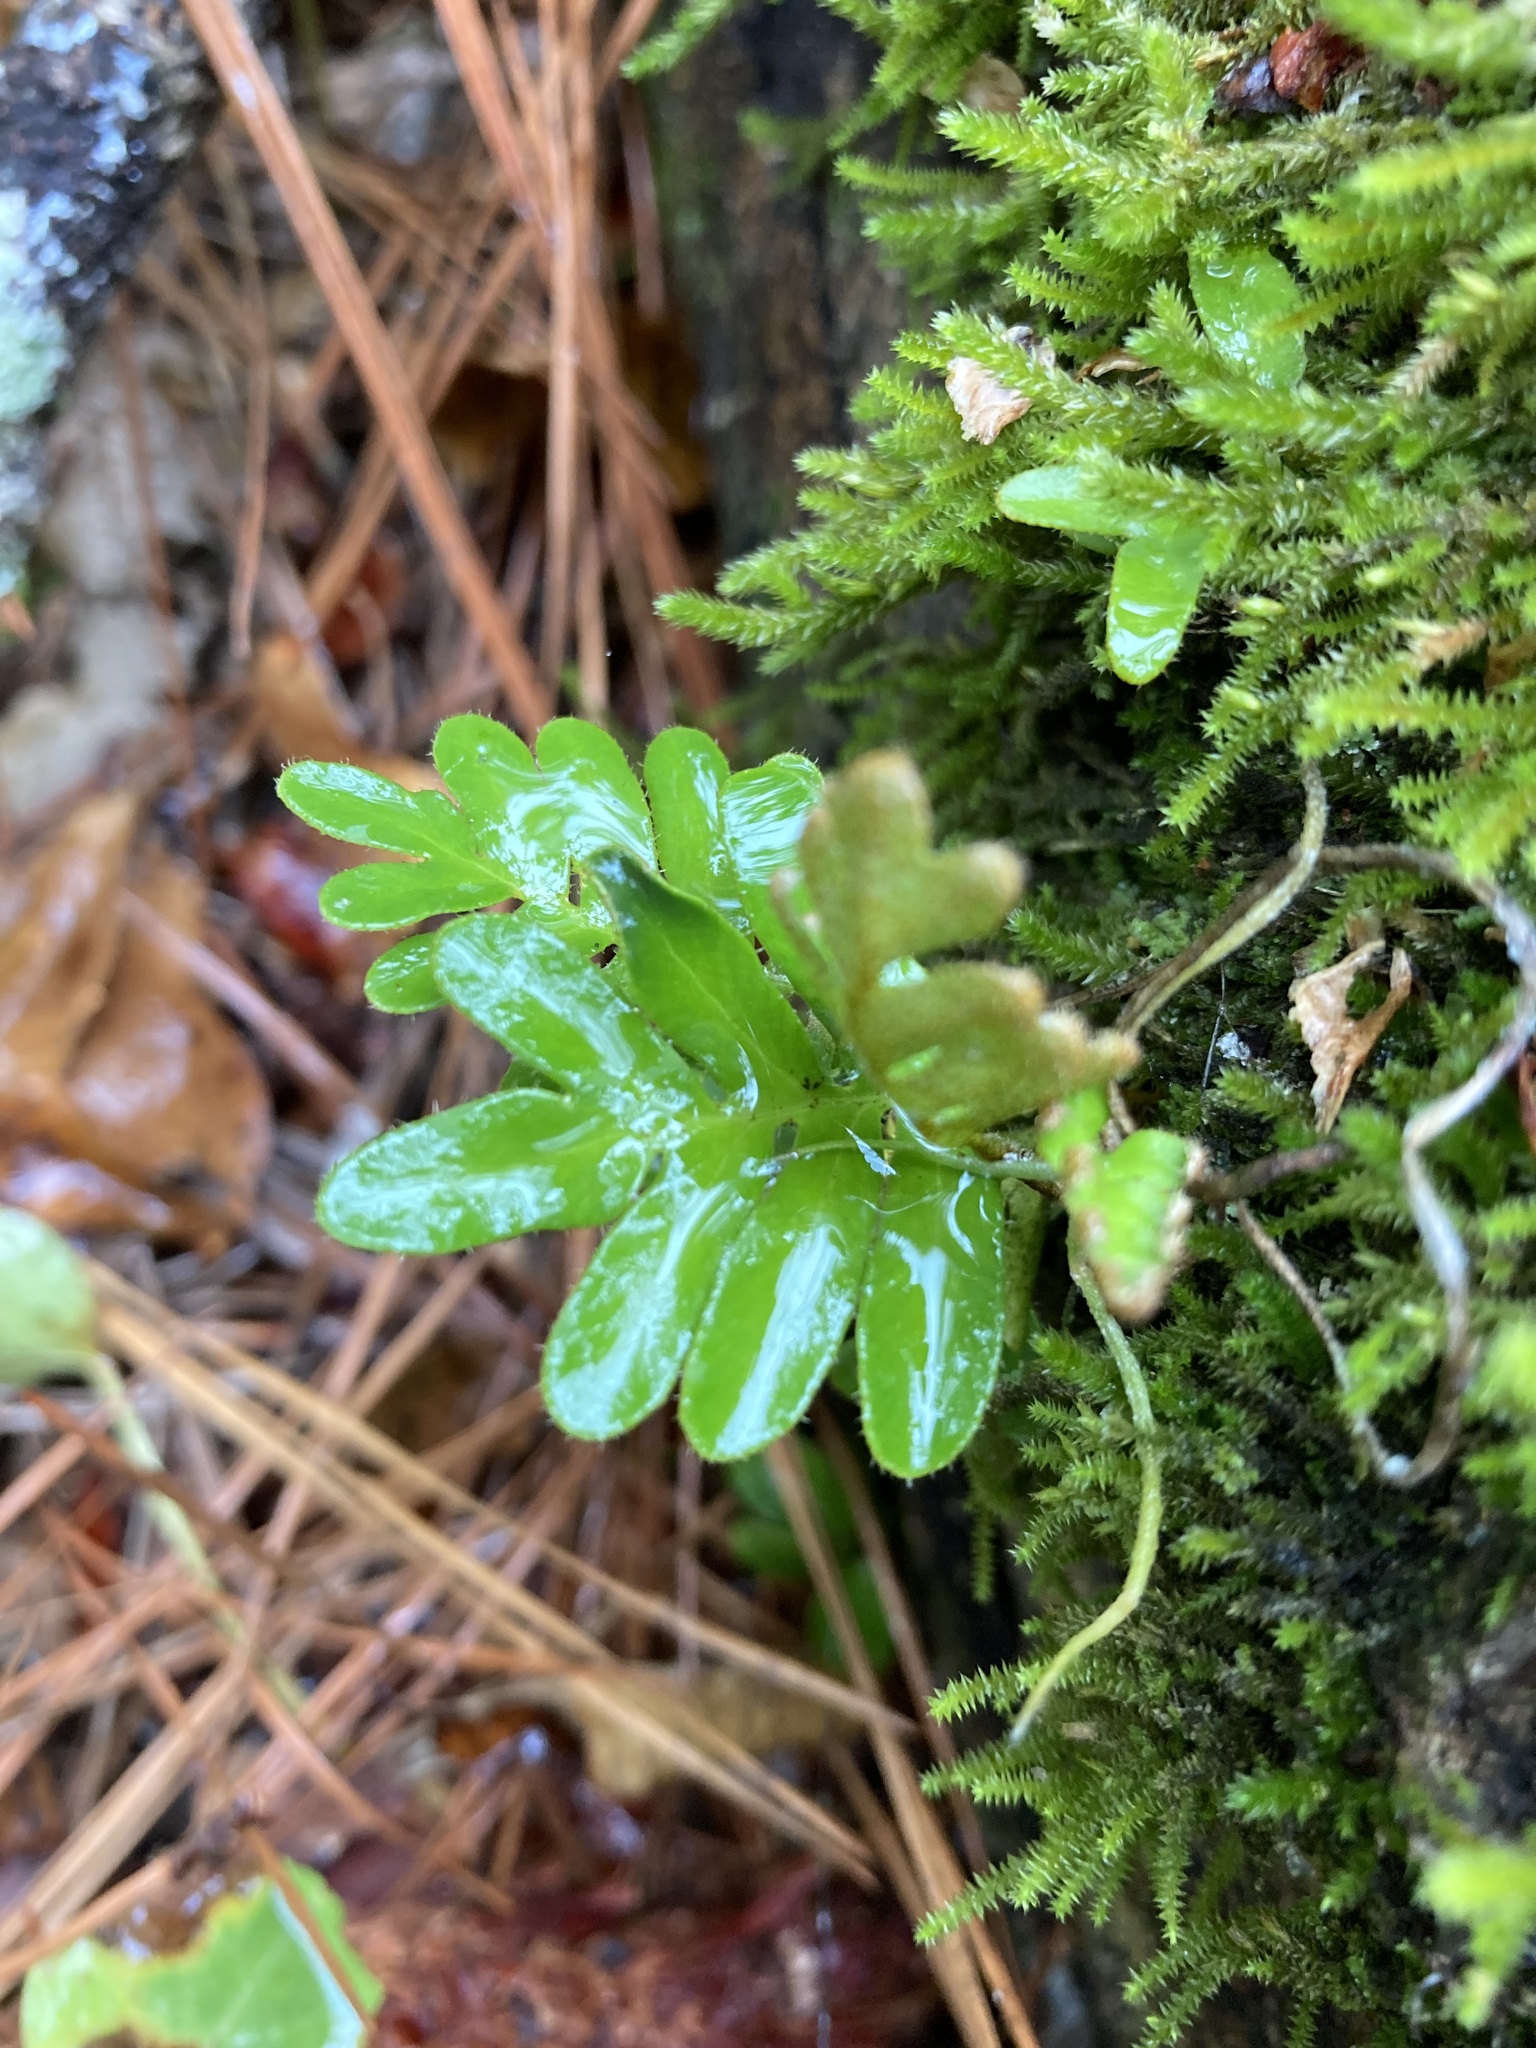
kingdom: Plantae
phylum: Tracheophyta
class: Polypodiopsida
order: Polypodiales
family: Polypodiaceae
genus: Pleopeltis
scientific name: Pleopeltis michauxiana
